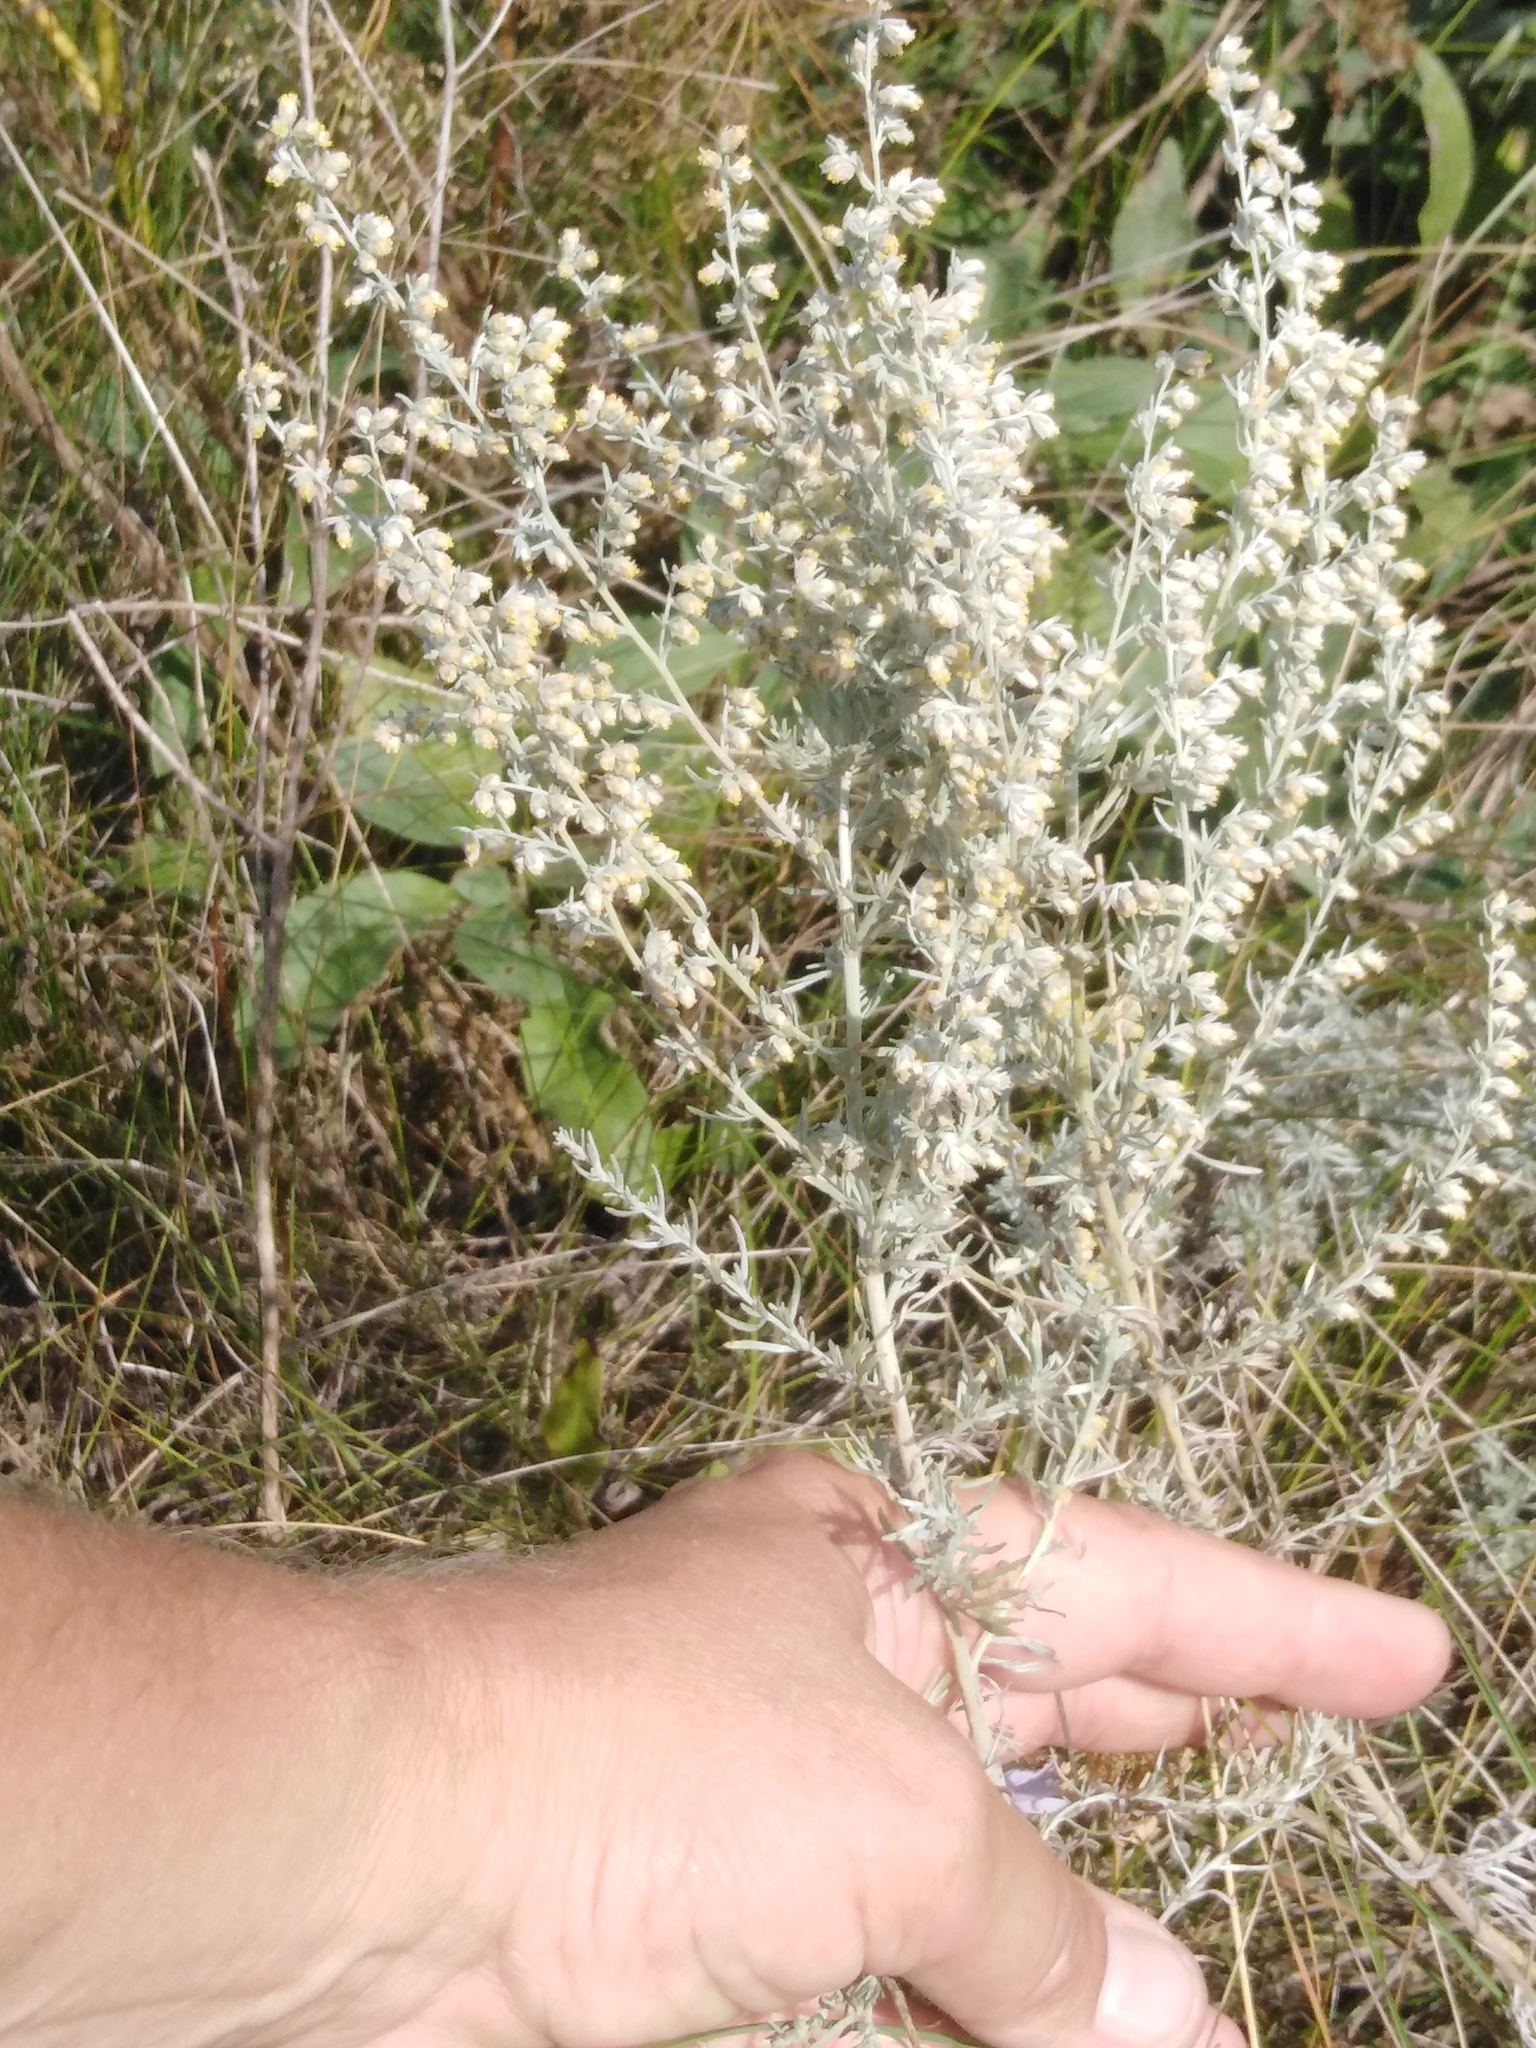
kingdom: Plantae
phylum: Tracheophyta
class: Magnoliopsida
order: Asterales
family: Asteraceae
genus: Artemisia
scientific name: Artemisia austriaca
